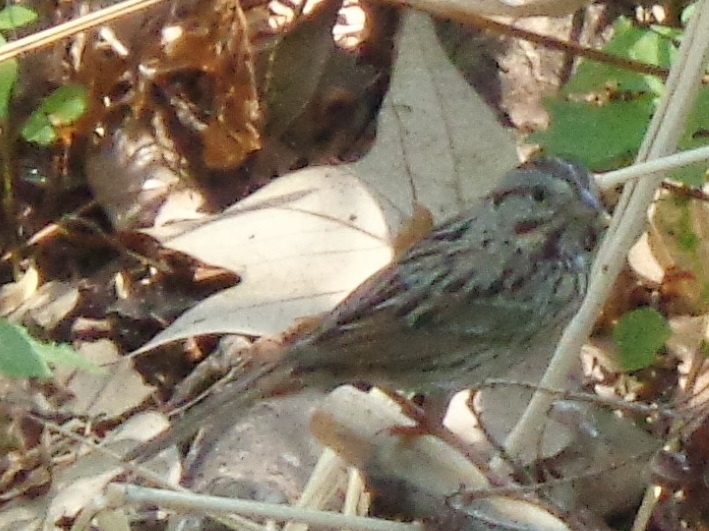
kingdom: Animalia
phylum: Chordata
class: Aves
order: Passeriformes
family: Passerellidae
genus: Melospiza
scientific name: Melospiza lincolnii
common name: Lincoln's sparrow
